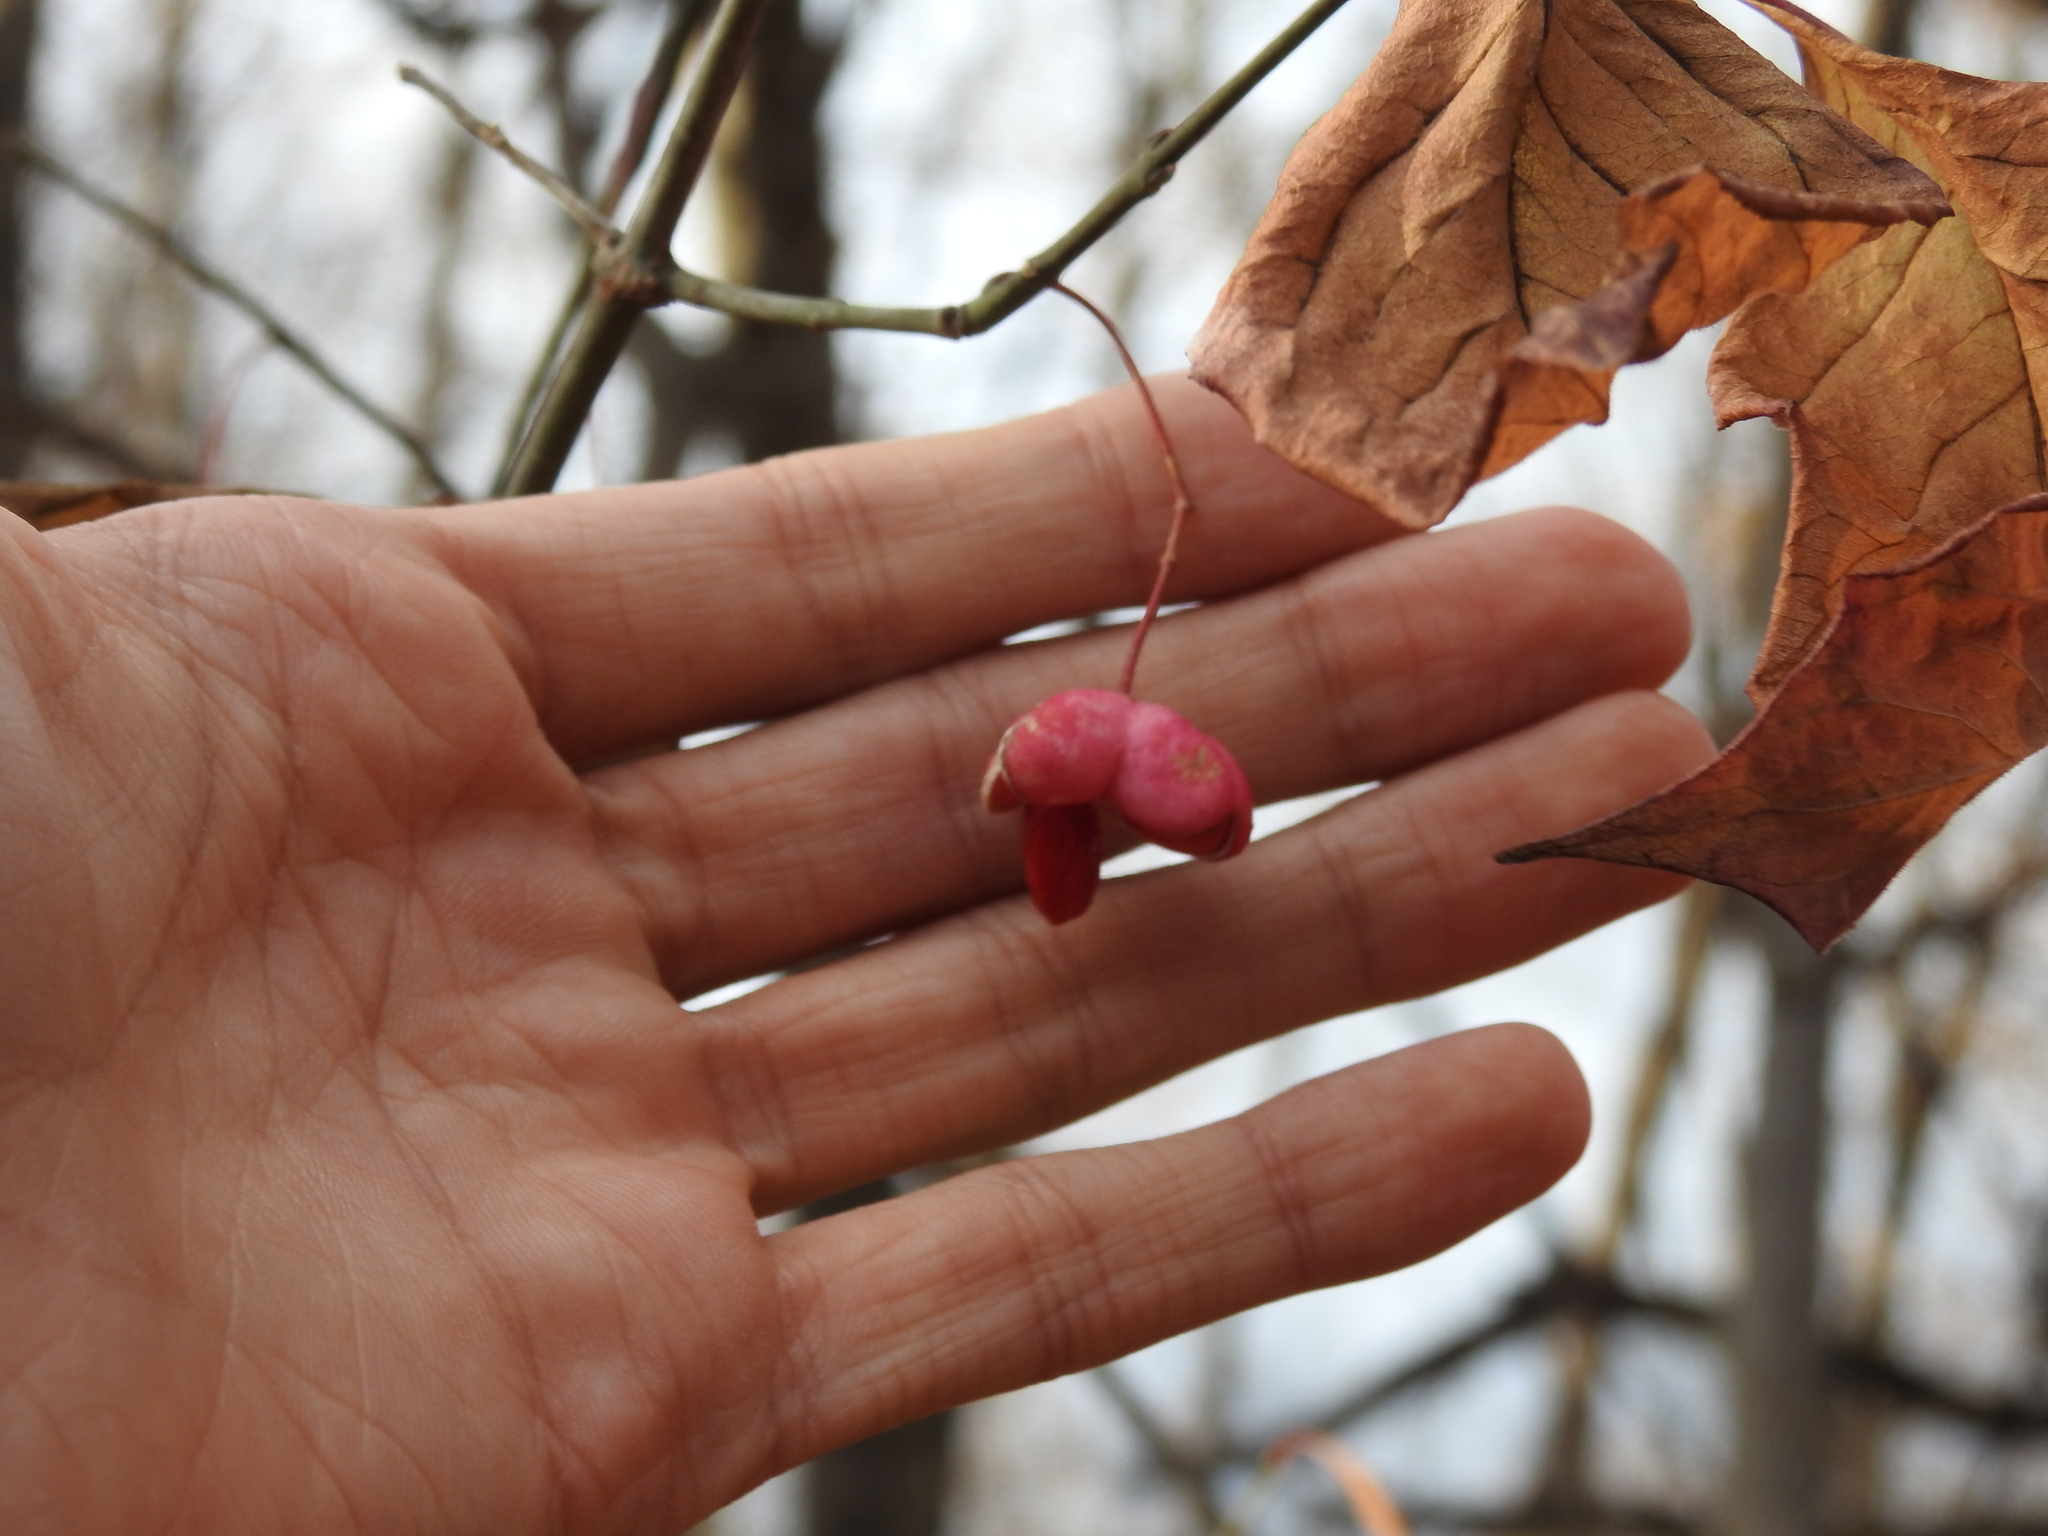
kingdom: Plantae
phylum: Tracheophyta
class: Magnoliopsida
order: Celastrales
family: Celastraceae
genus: Euonymus
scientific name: Euonymus atropurpureus
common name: Eastern wahoo
